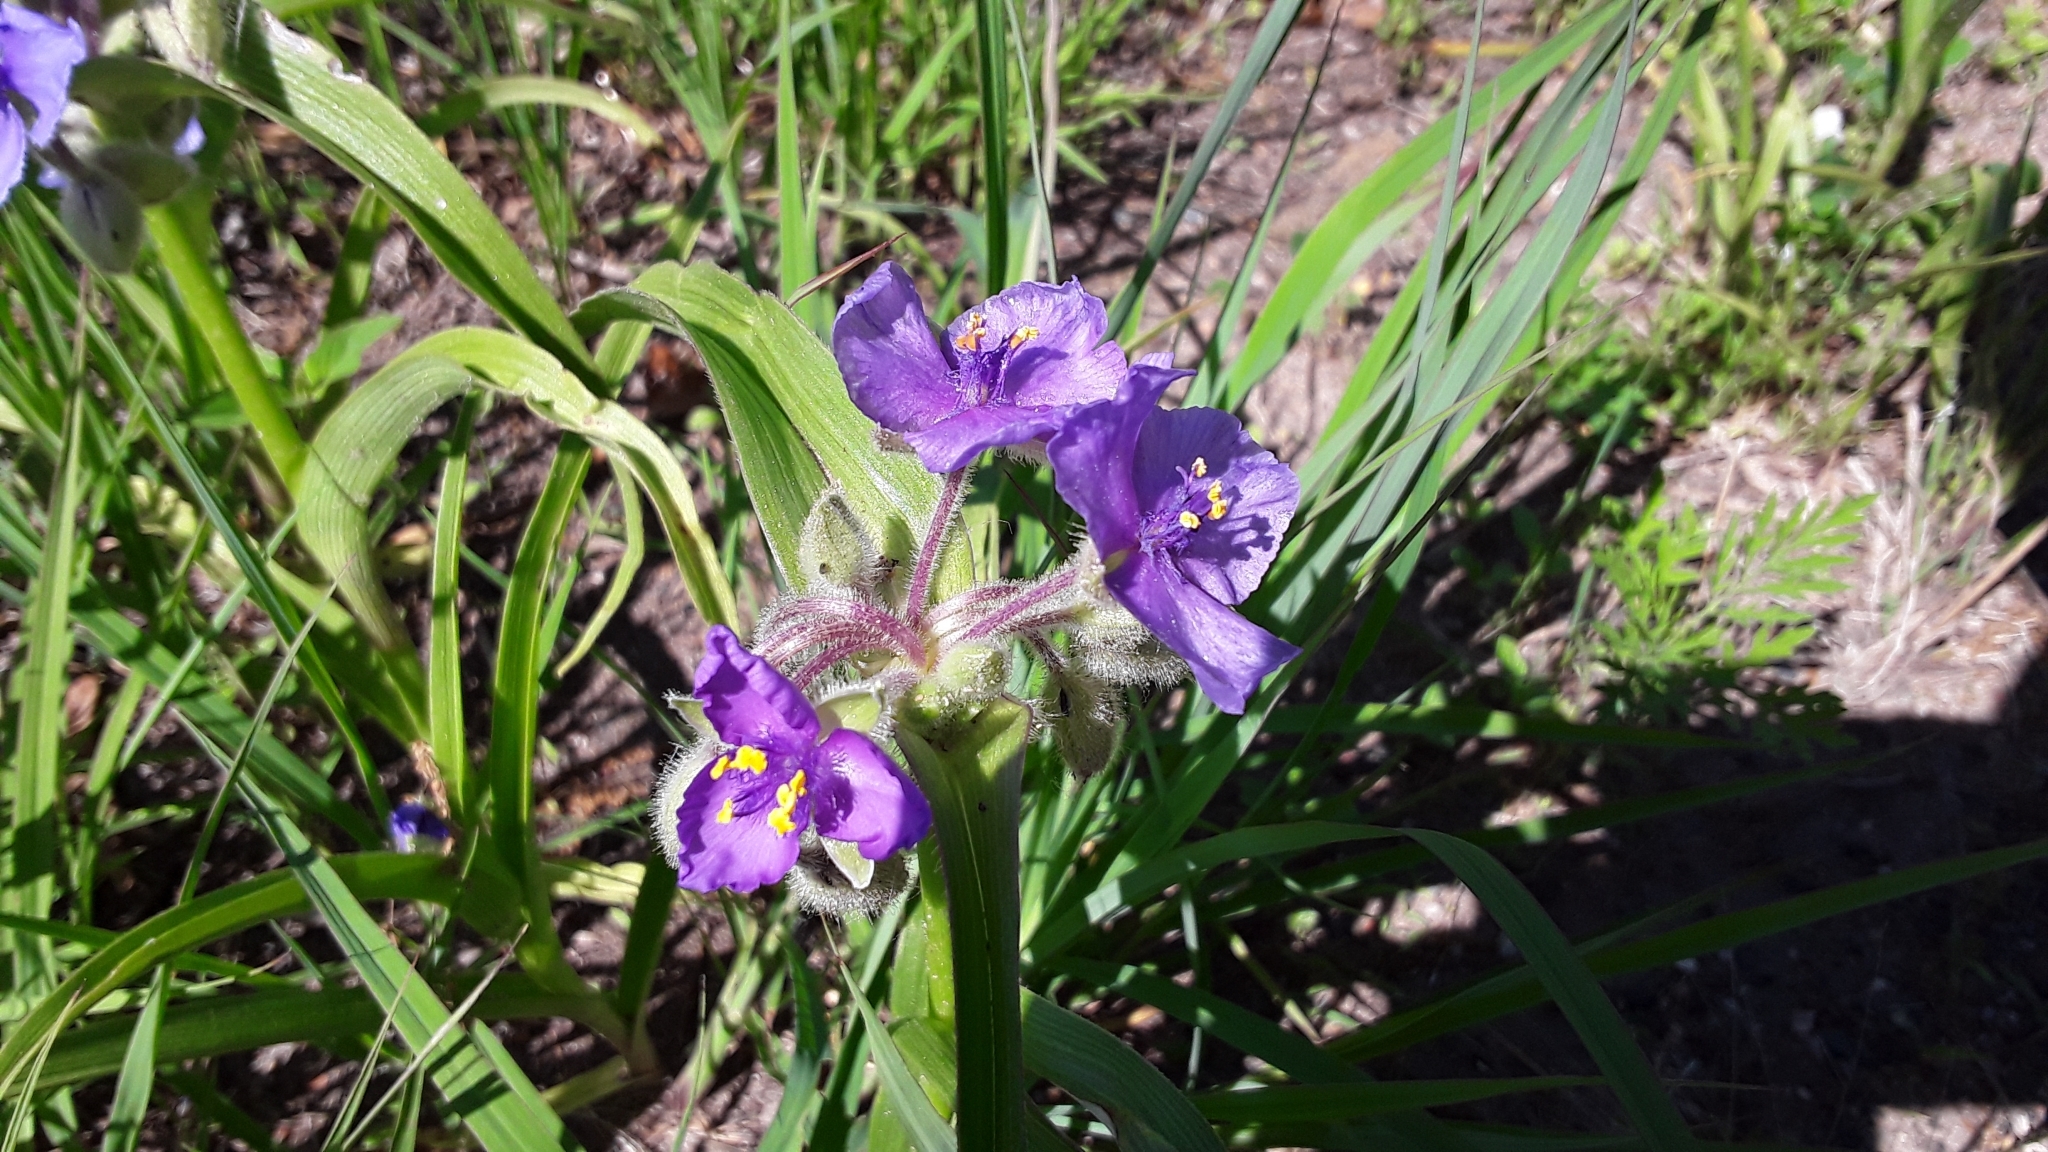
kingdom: Plantae
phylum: Tracheophyta
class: Liliopsida
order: Commelinales
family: Commelinaceae
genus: Tradescantia
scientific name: Tradescantia bracteata
